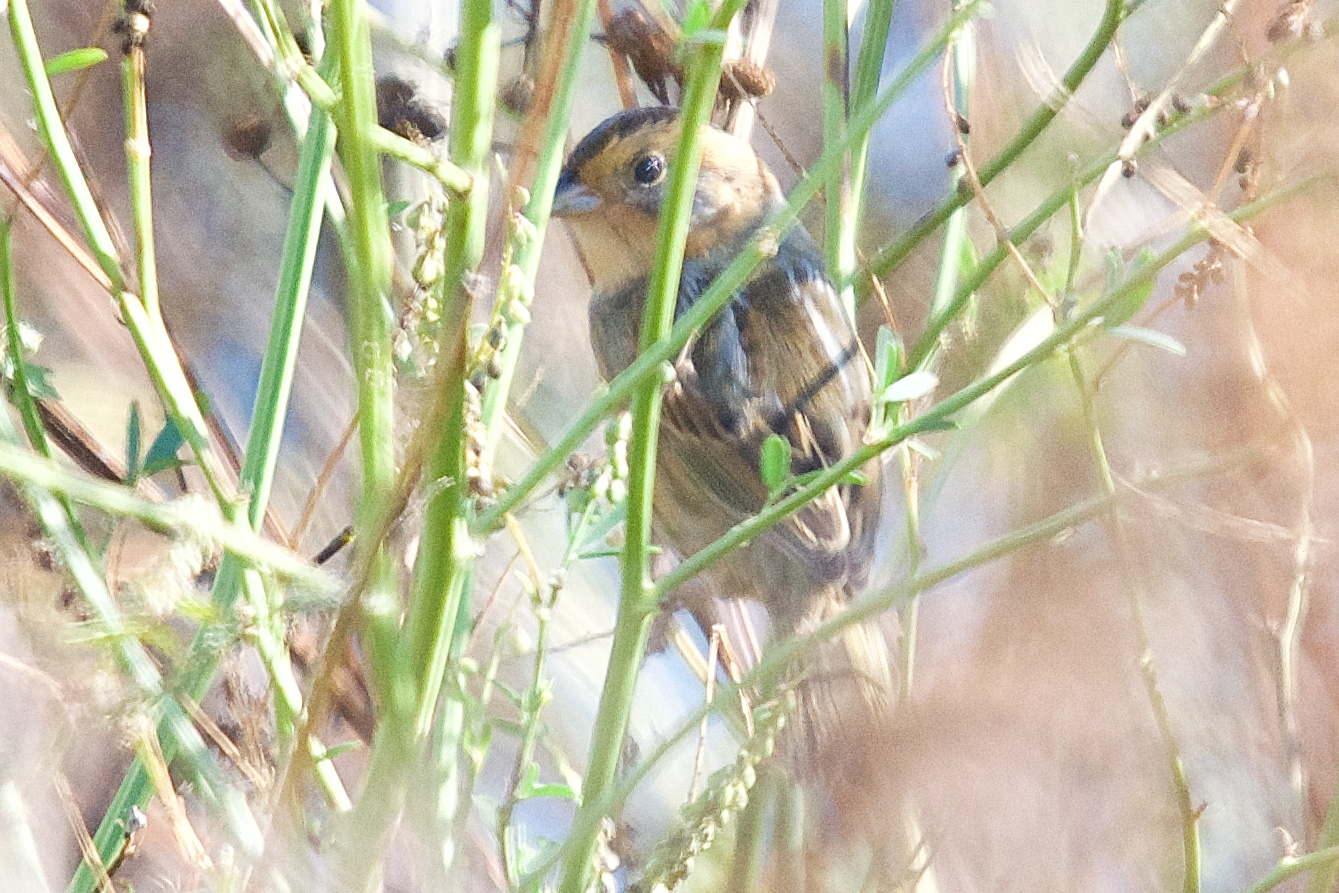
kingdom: Animalia
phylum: Chordata
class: Aves
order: Passeriformes
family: Passerellidae
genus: Ammospiza
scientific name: Ammospiza nelsoni
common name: Nelson's sparrow
